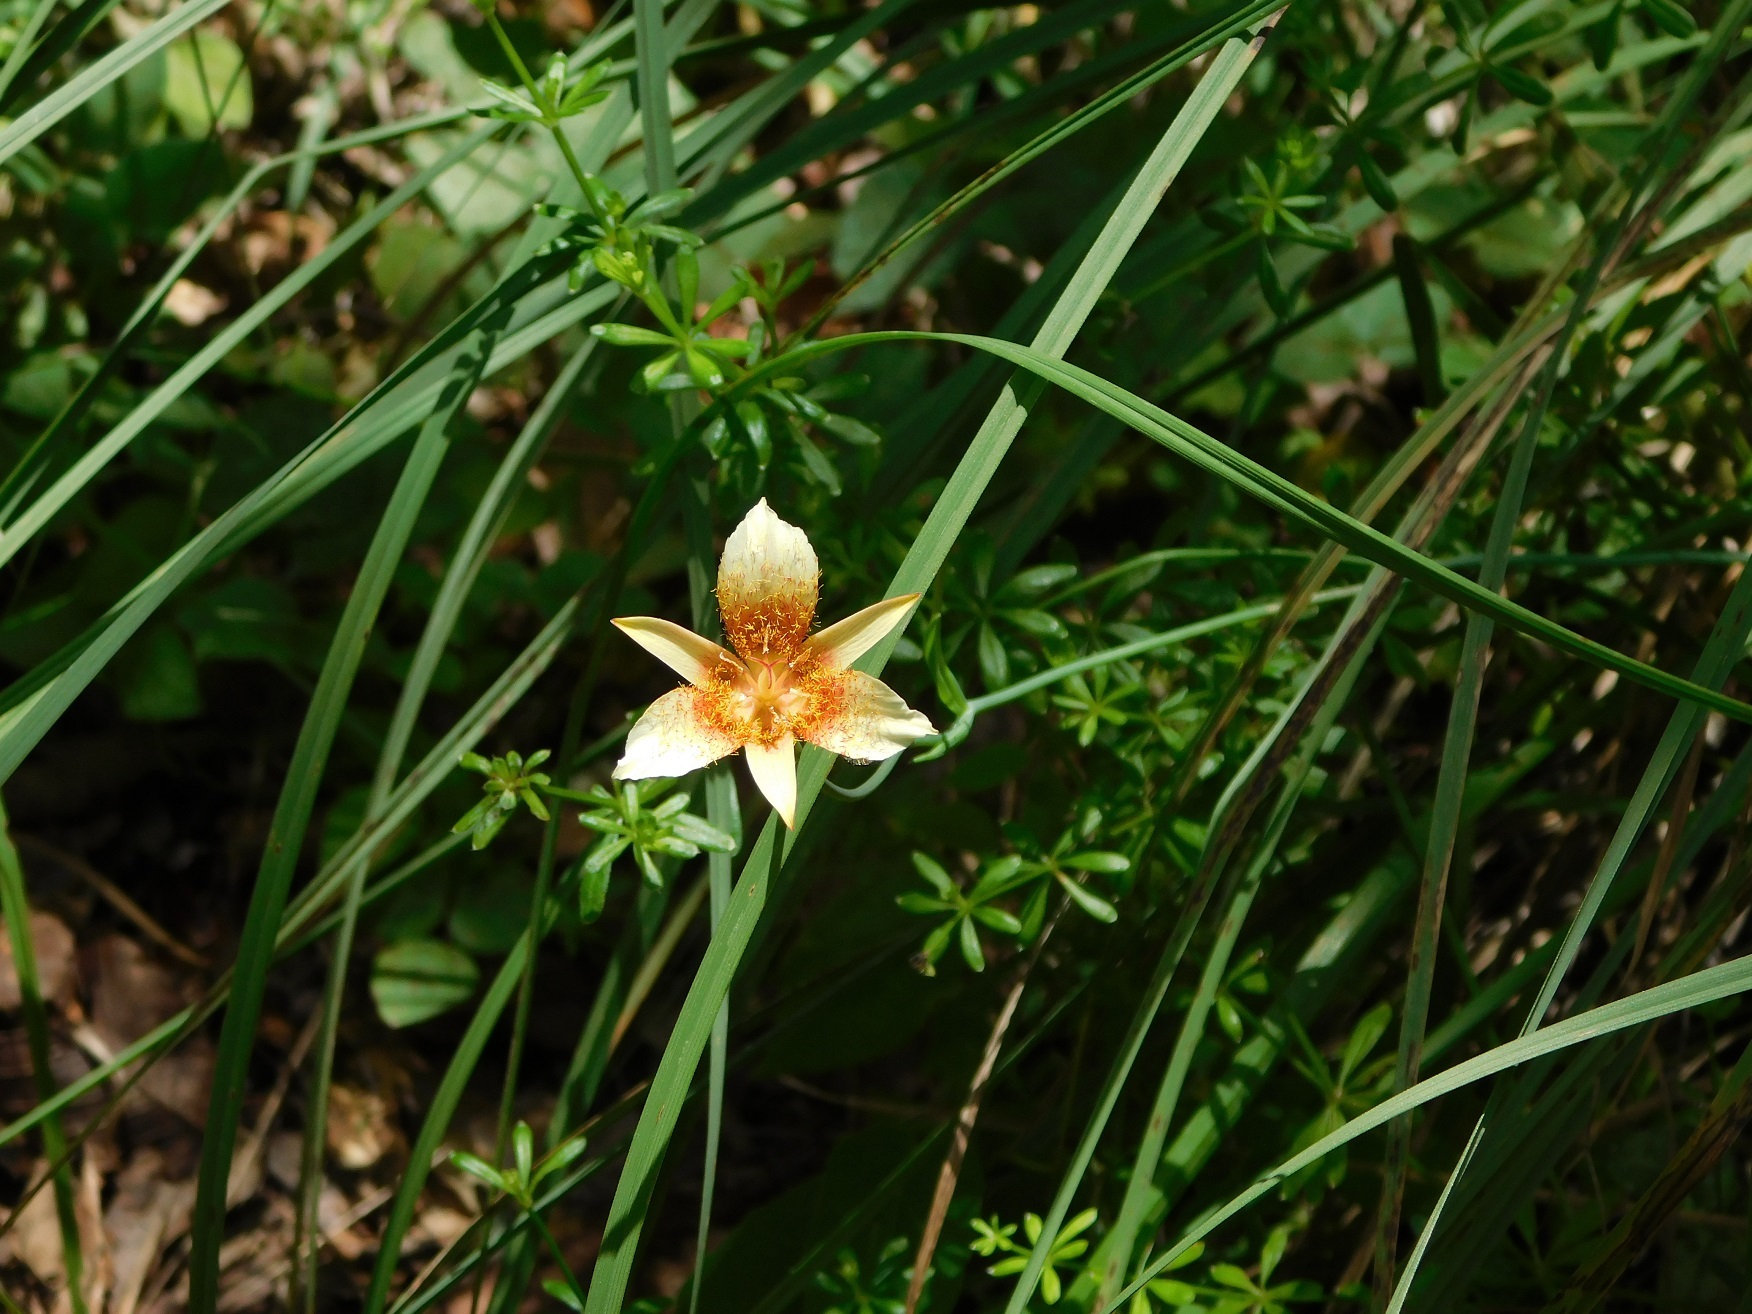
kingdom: Plantae
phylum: Tracheophyta
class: Liliopsida
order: Liliales
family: Liliaceae
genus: Calochortus
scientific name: Calochortus ghiesbreghtii
